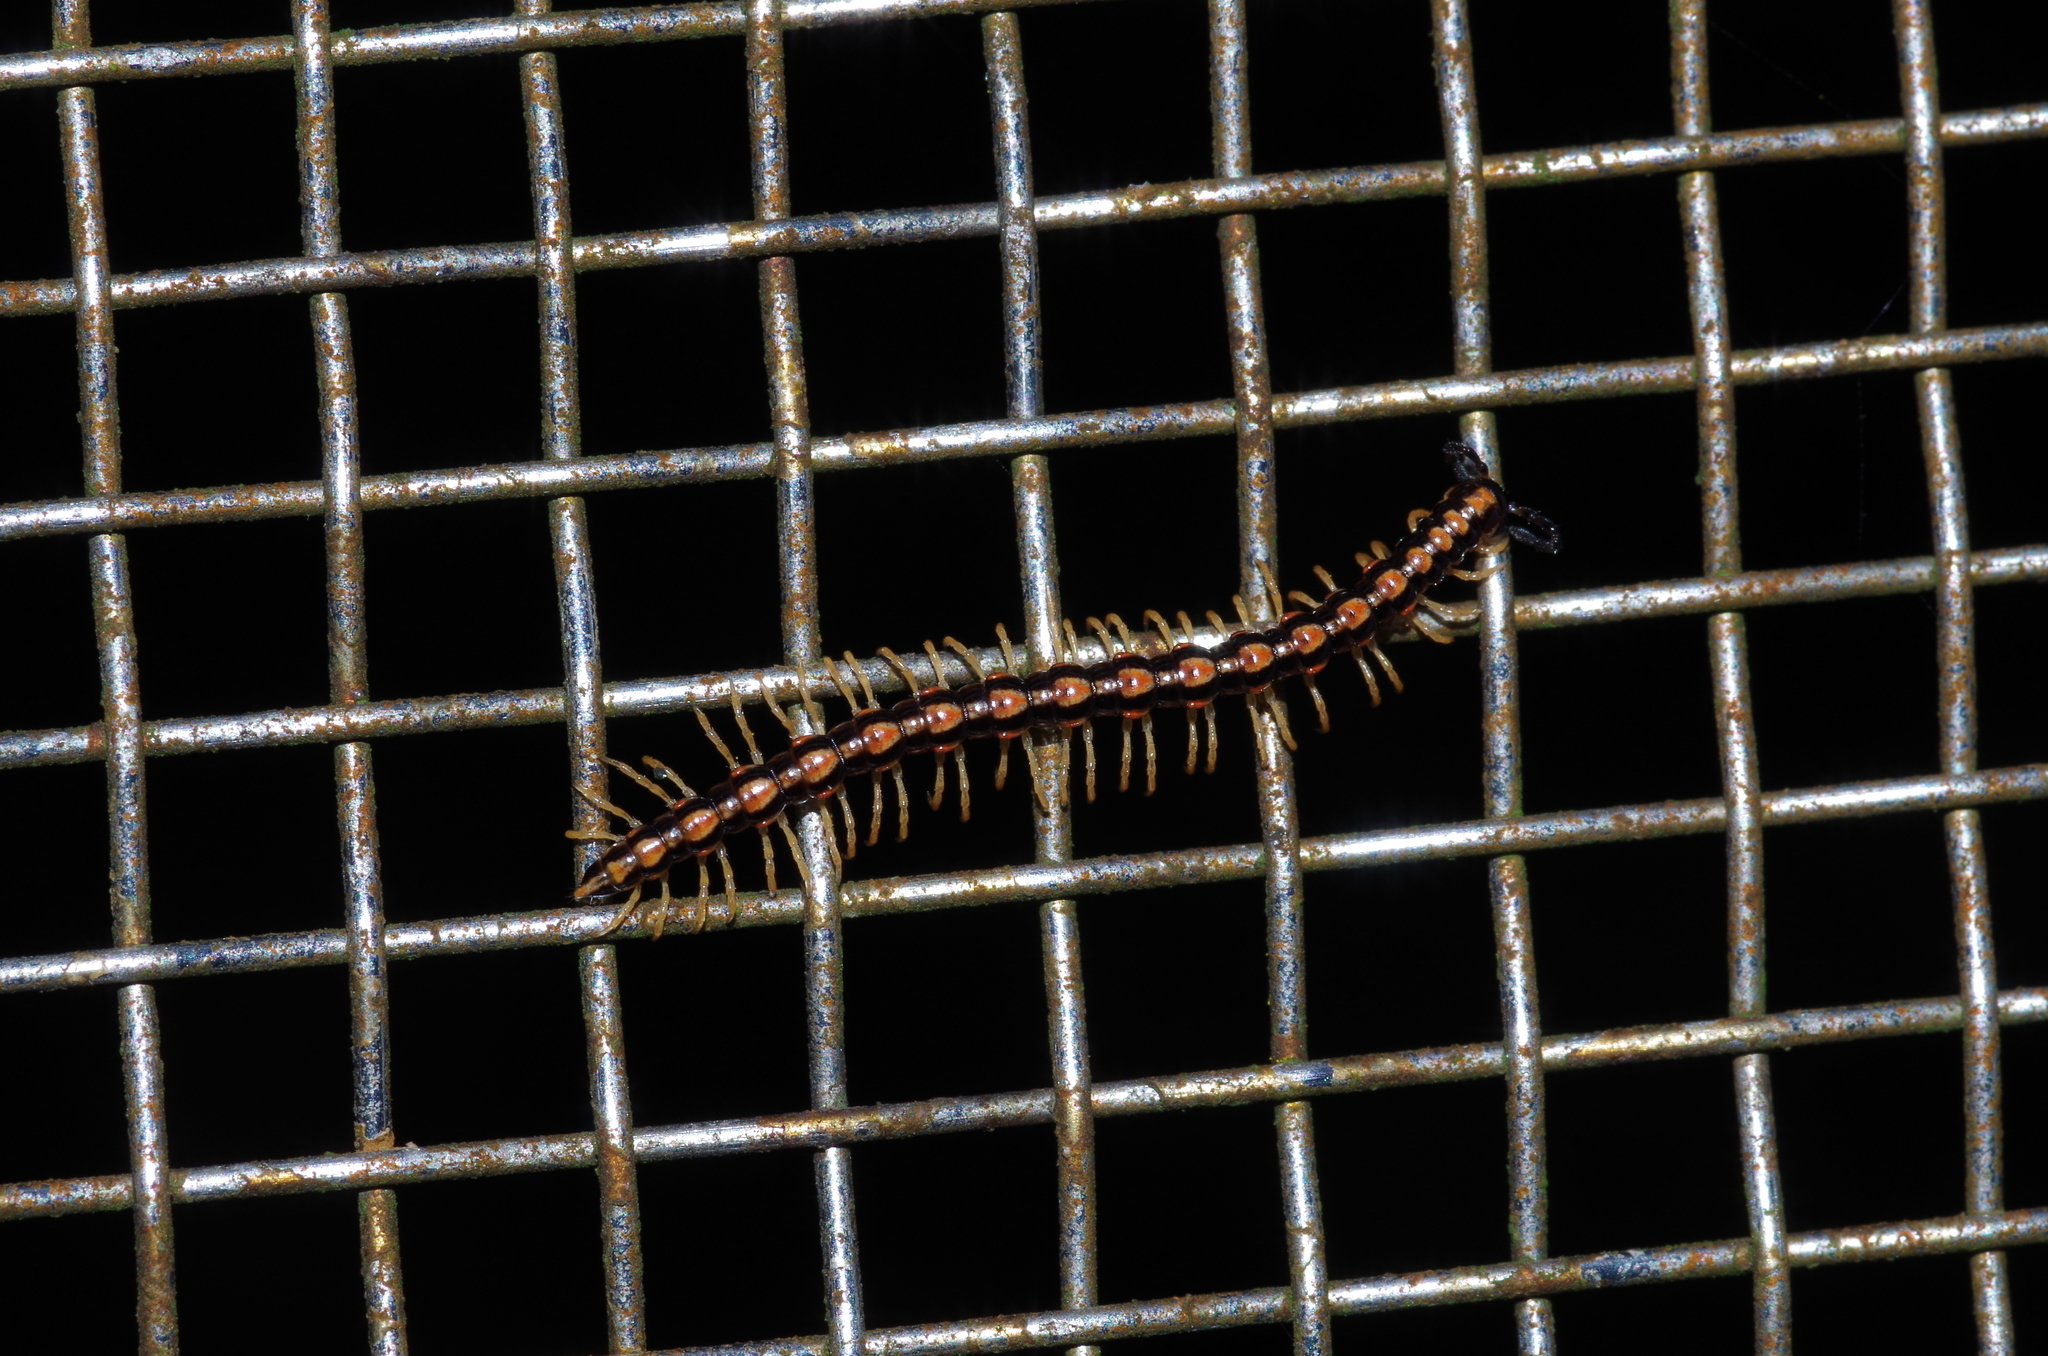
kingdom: Animalia
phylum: Arthropoda
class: Diplopoda
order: Polydesmida
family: Paradoxosomatidae
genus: Helicorthomorpha
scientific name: Helicorthomorpha holstii
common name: Millipede
